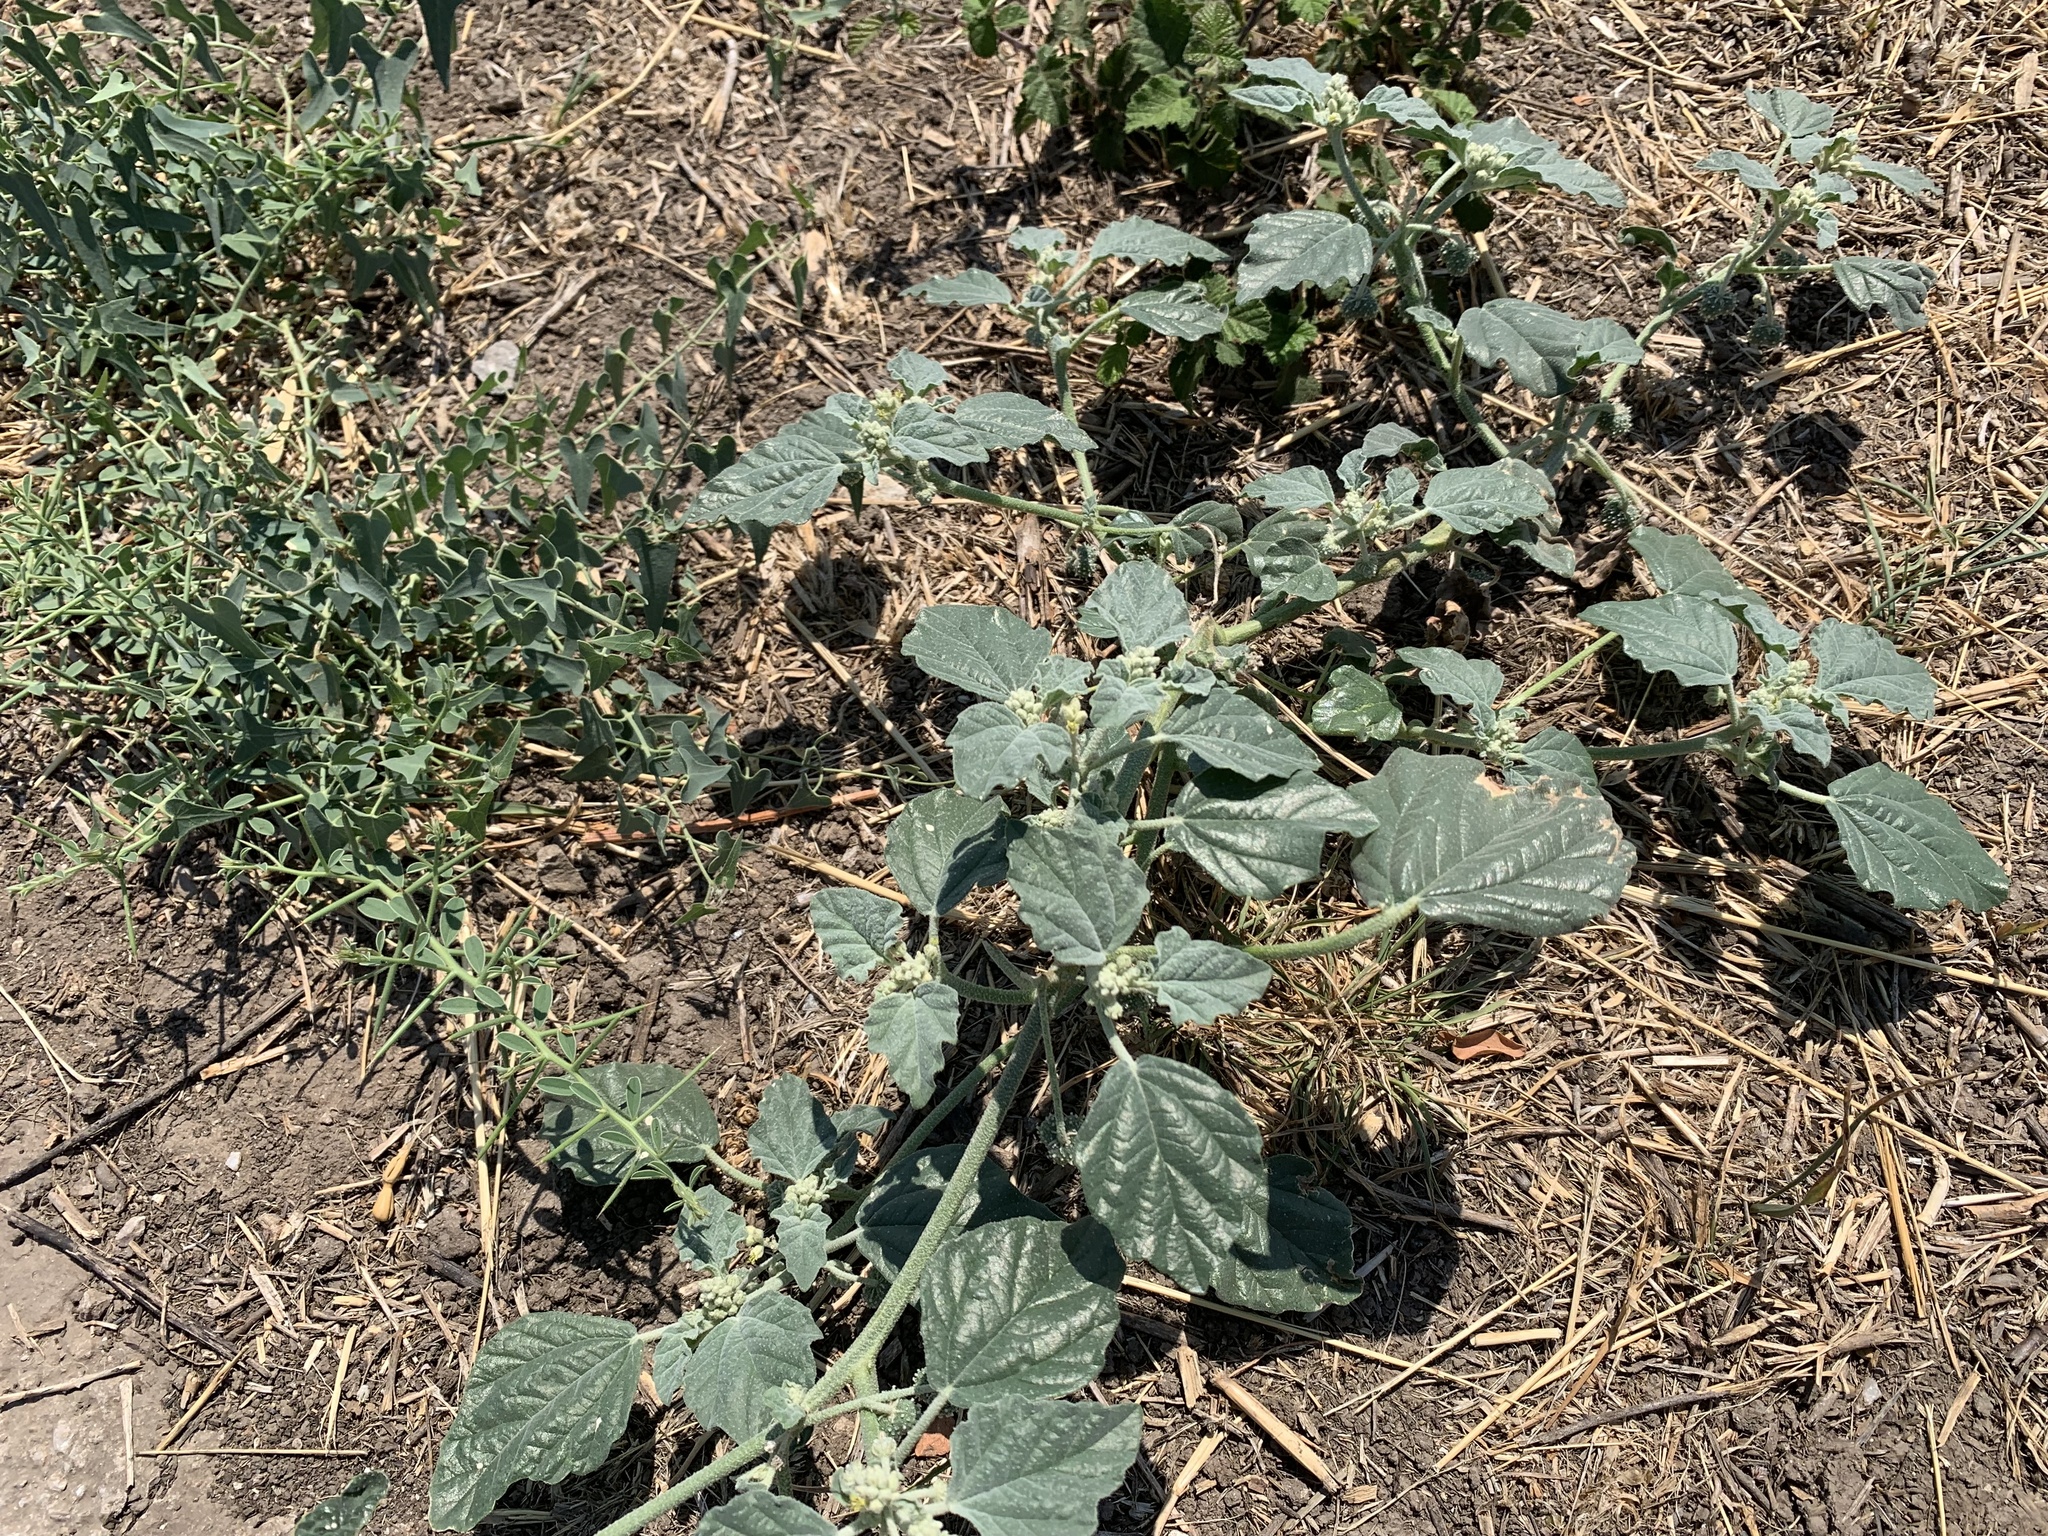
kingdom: Plantae
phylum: Tracheophyta
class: Magnoliopsida
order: Malpighiales
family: Euphorbiaceae
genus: Chrozophora
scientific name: Chrozophora tinctoria
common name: Dyer's litmus
